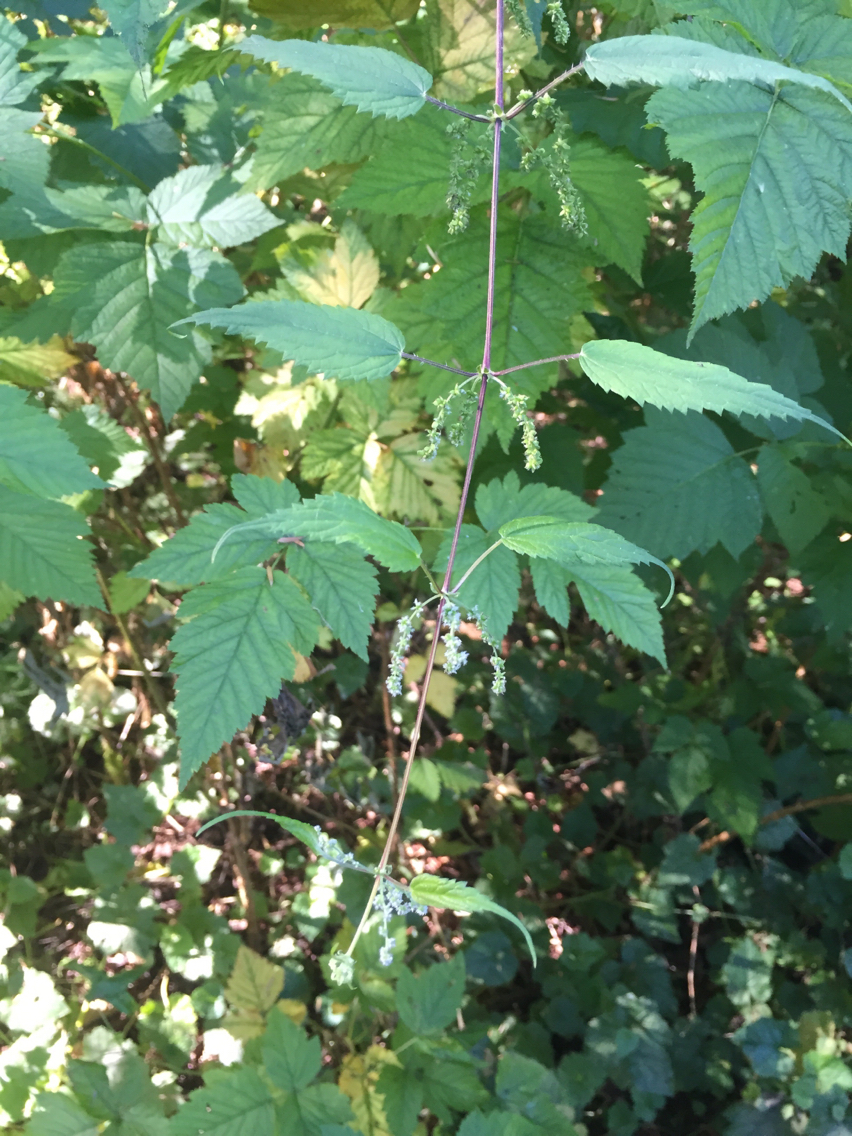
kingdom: Plantae
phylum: Tracheophyta
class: Magnoliopsida
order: Rosales
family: Urticaceae
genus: Urtica
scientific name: Urtica gracilis
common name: Slender stinging nettle
